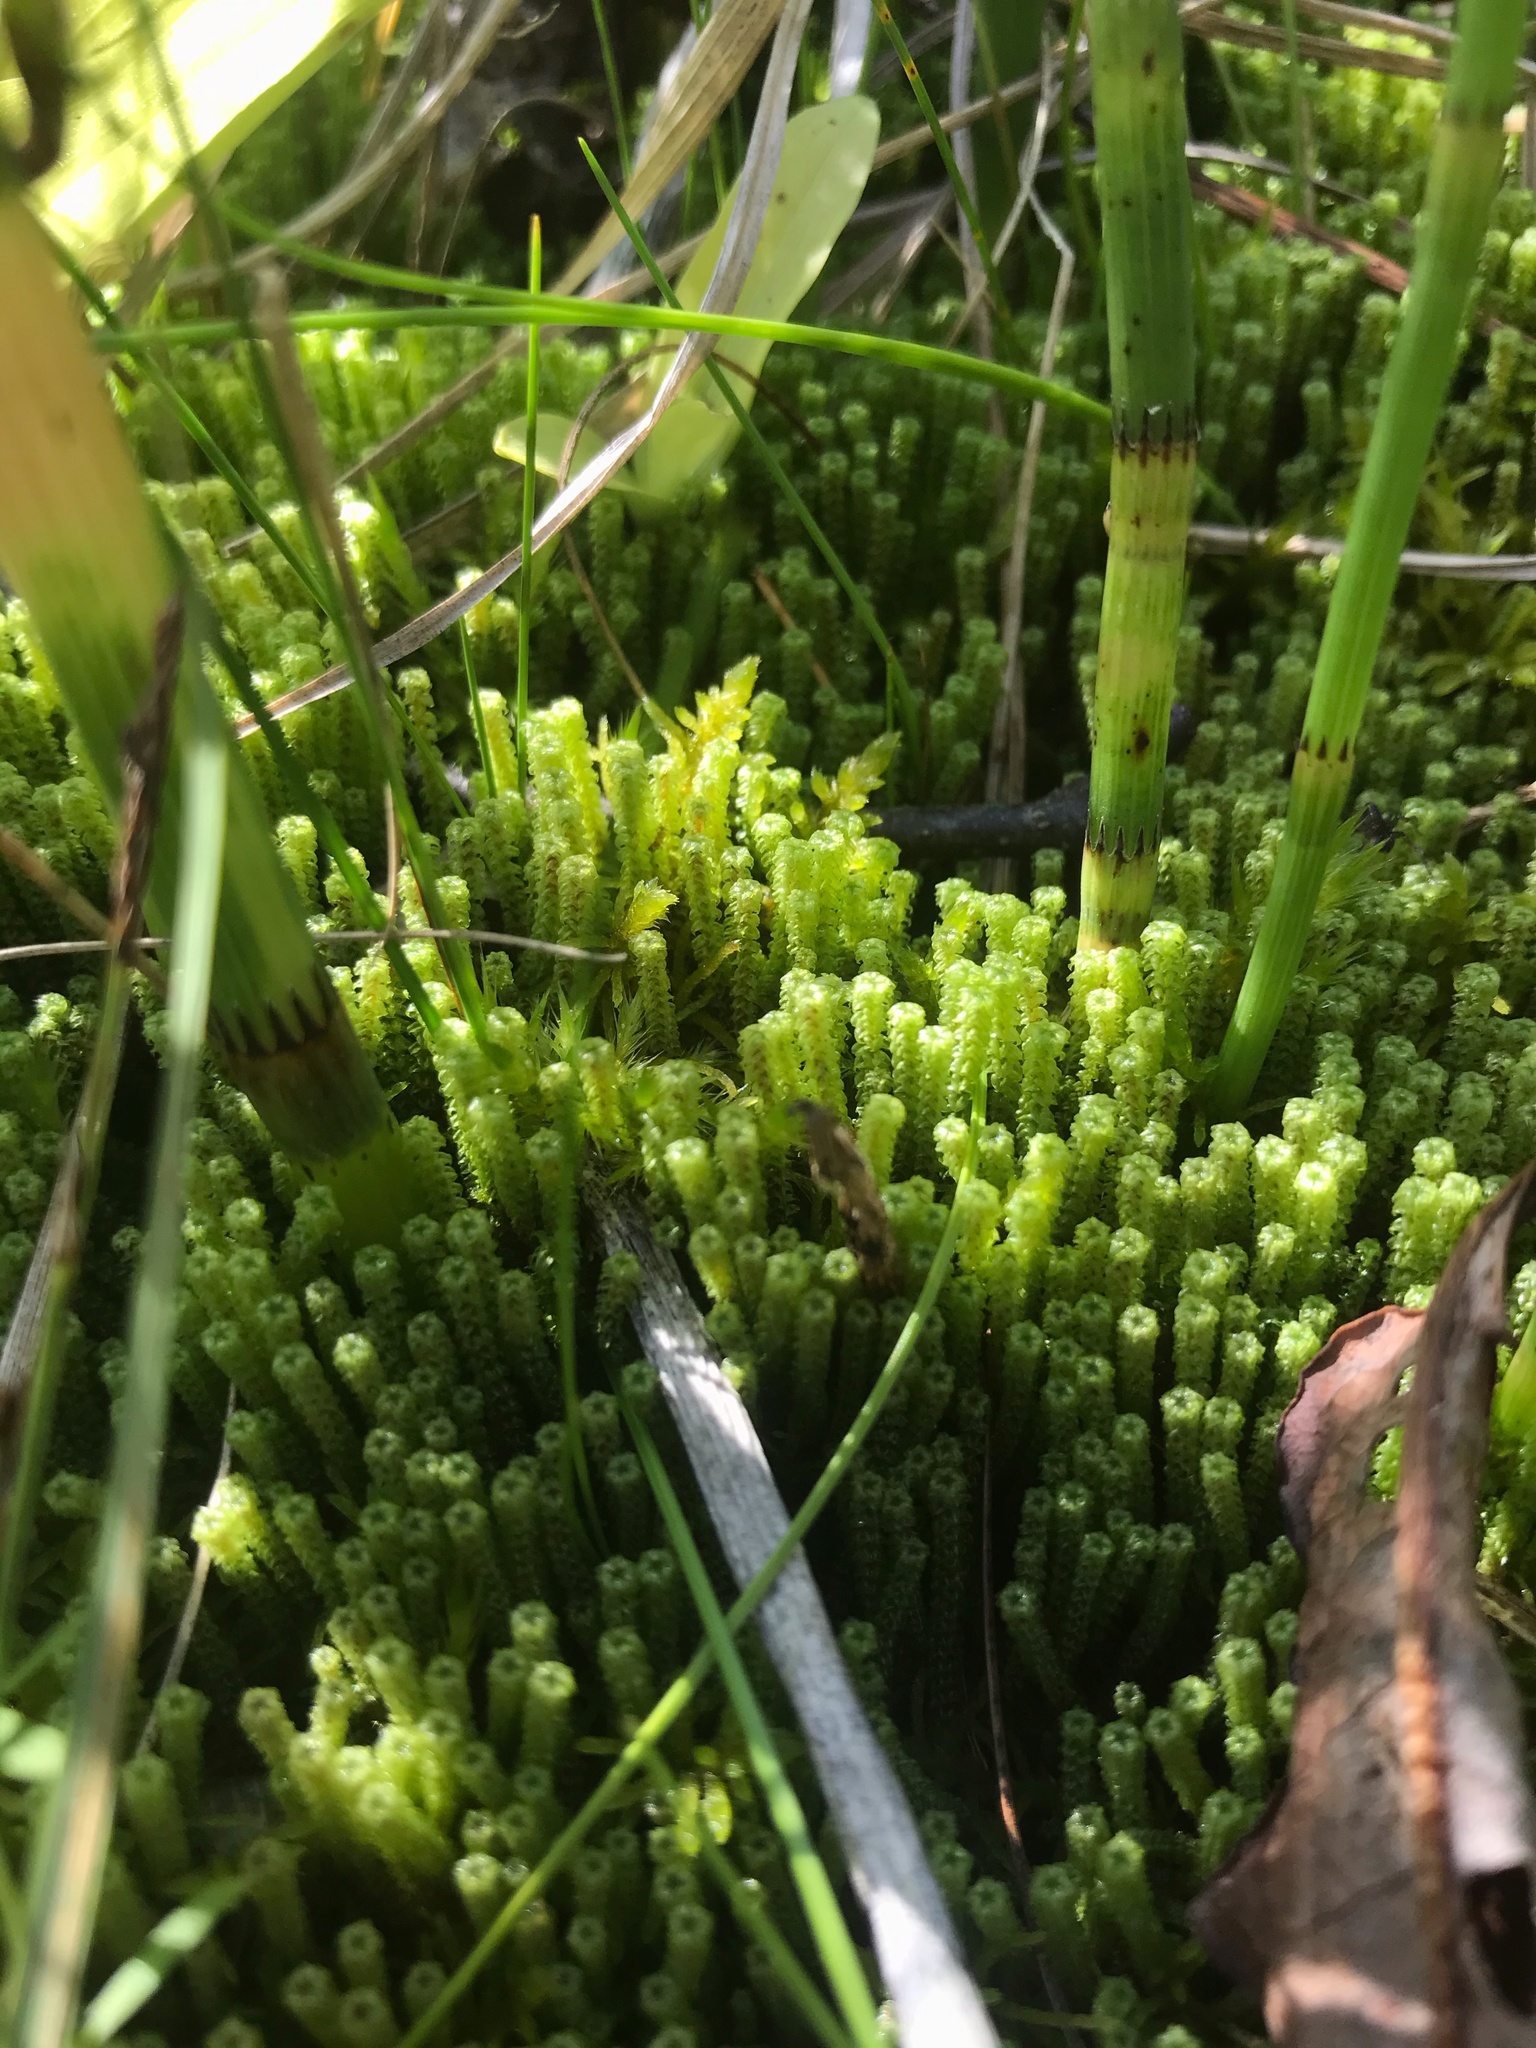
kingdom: Plantae
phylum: Bryophyta
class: Bryopsida
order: Splachnales
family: Meesiaceae
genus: Paludella
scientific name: Paludella squarrosa
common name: Tufted fen moss
